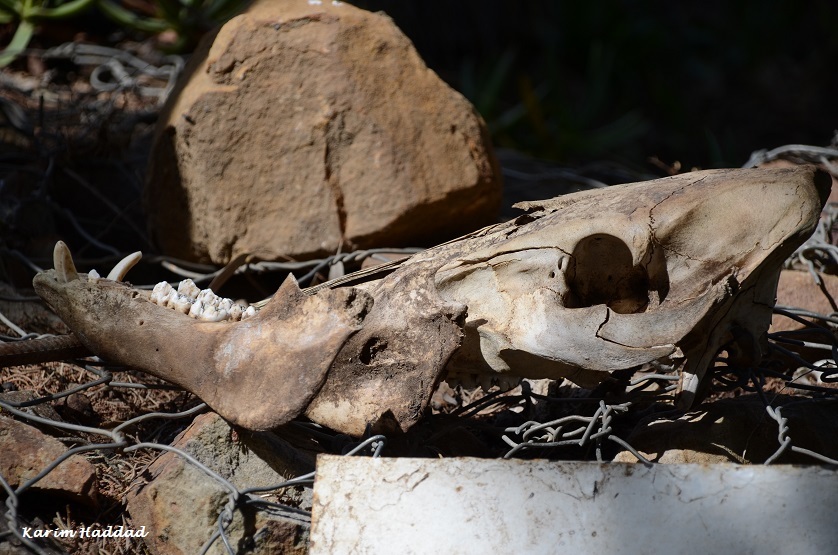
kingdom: Animalia
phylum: Chordata
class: Mammalia
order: Artiodactyla
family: Suidae
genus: Sus
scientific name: Sus scrofa
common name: Wild boar
